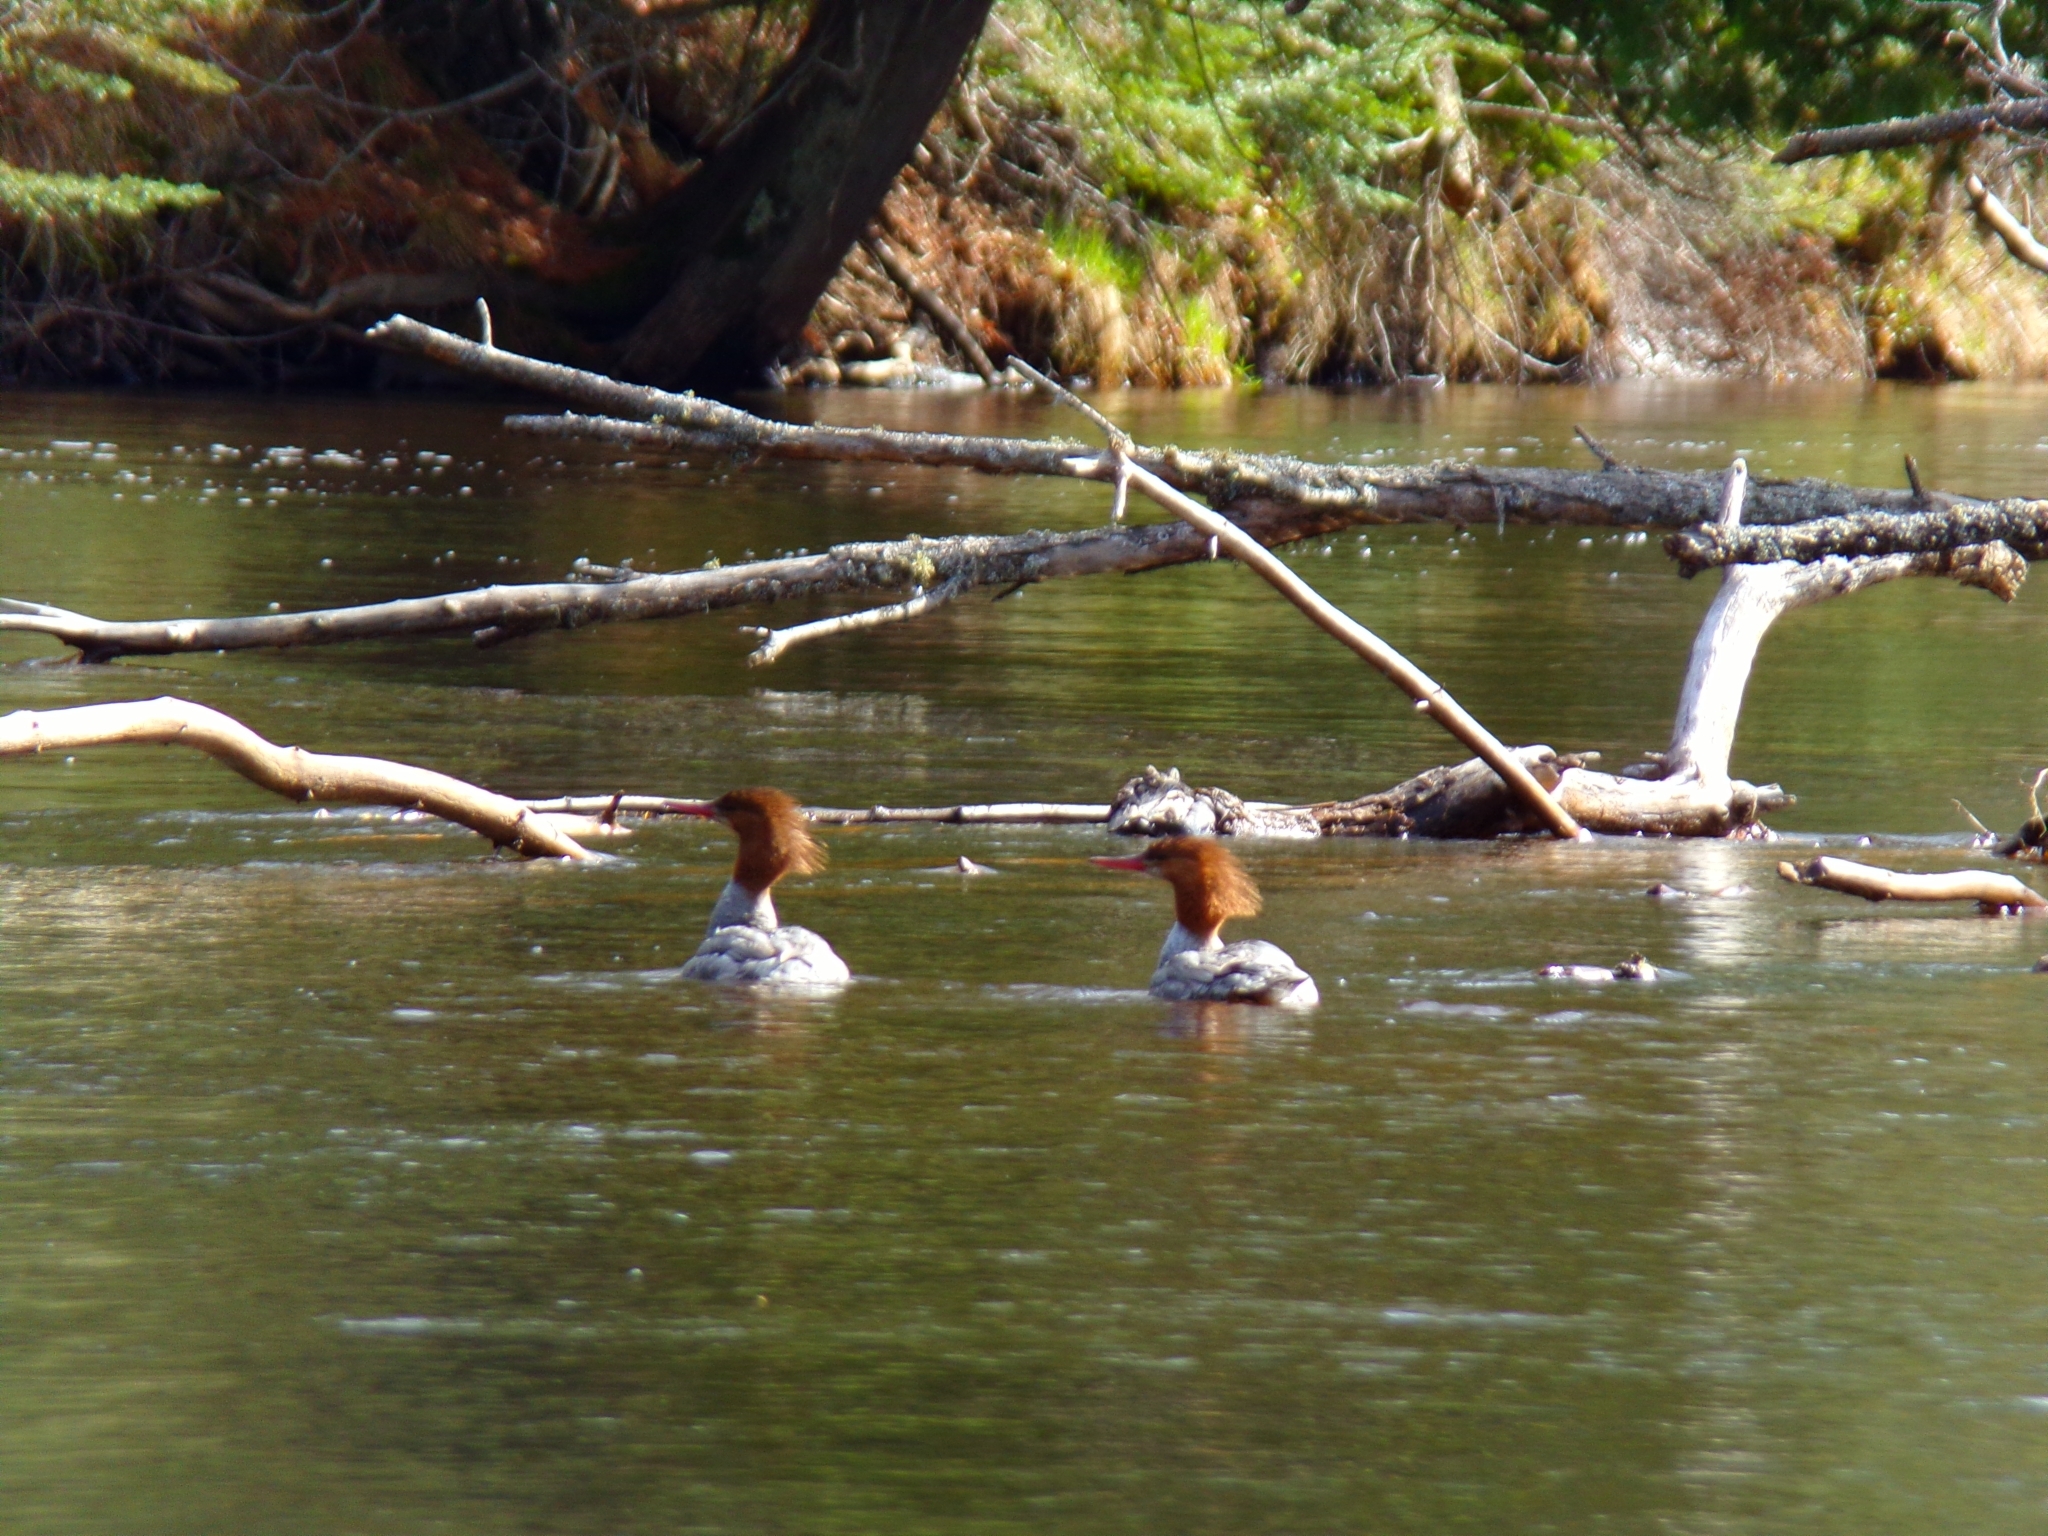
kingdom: Animalia
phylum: Chordata
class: Aves
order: Anseriformes
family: Anatidae
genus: Mergus
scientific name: Mergus merganser
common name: Common merganser
